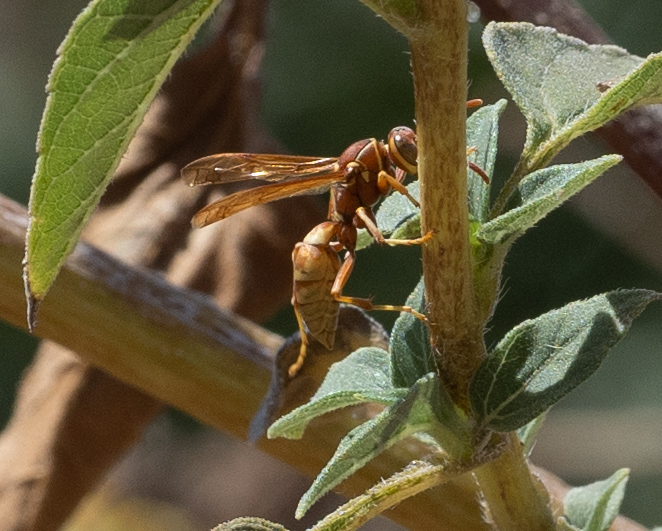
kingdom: Animalia
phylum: Arthropoda
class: Insecta
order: Hymenoptera
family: Eumenidae
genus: Polistes
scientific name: Polistes dorsalis
